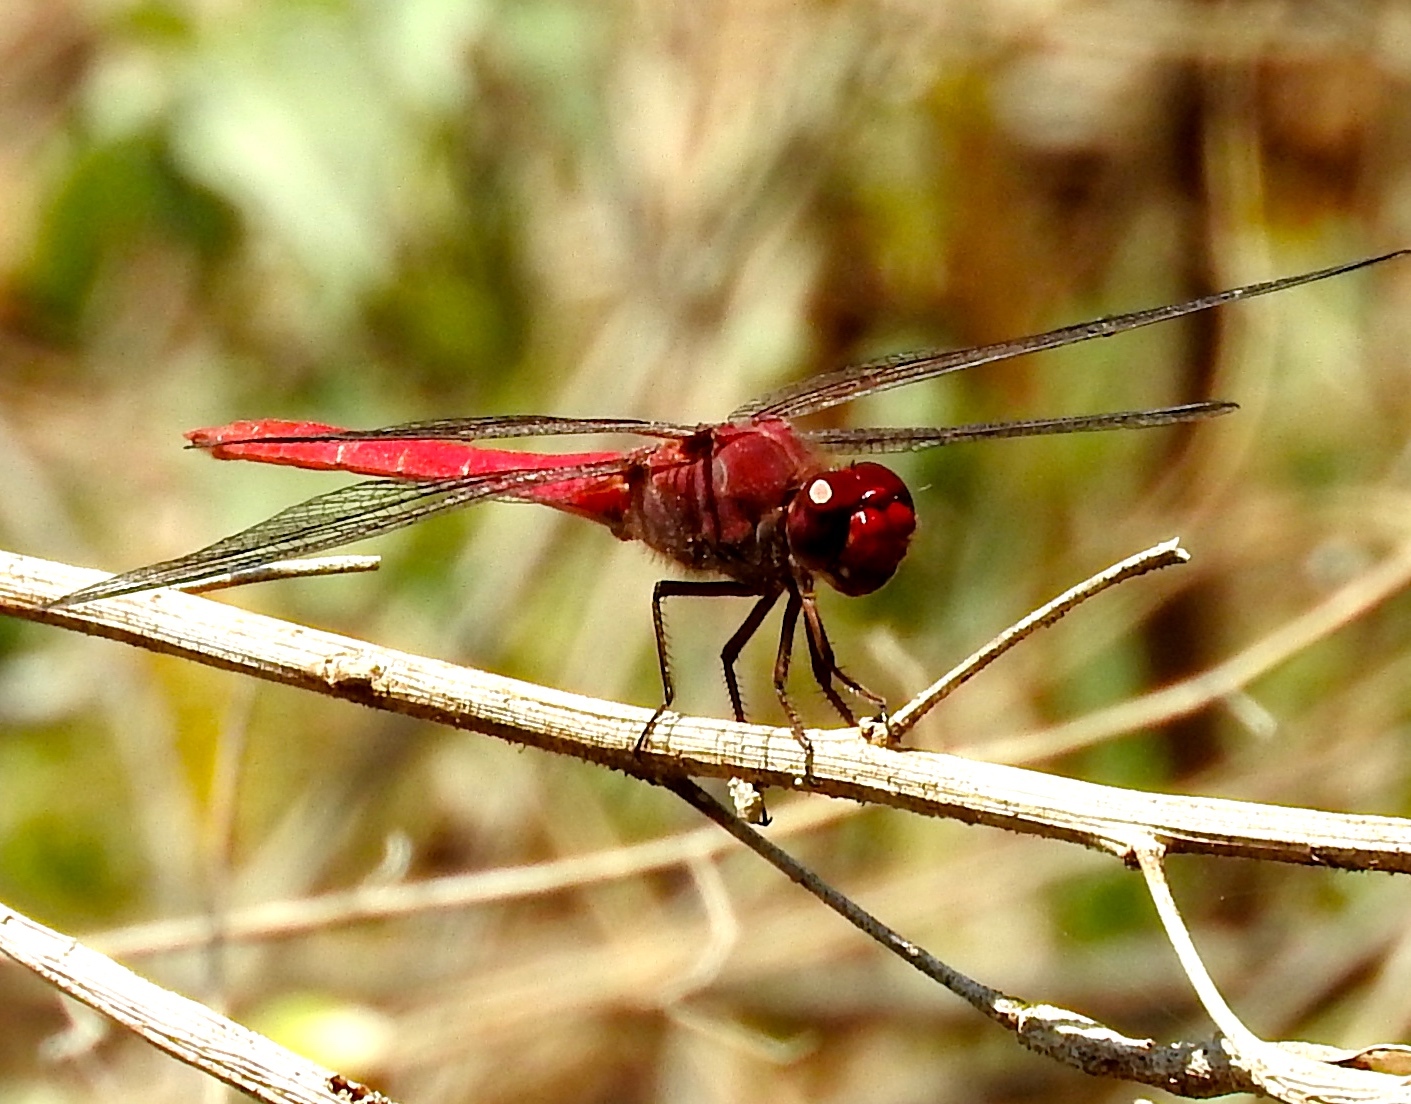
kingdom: Animalia
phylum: Arthropoda
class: Insecta
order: Odonata
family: Libellulidae
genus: Orthemis
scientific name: Orthemis discolor
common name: Carmine skimmer
